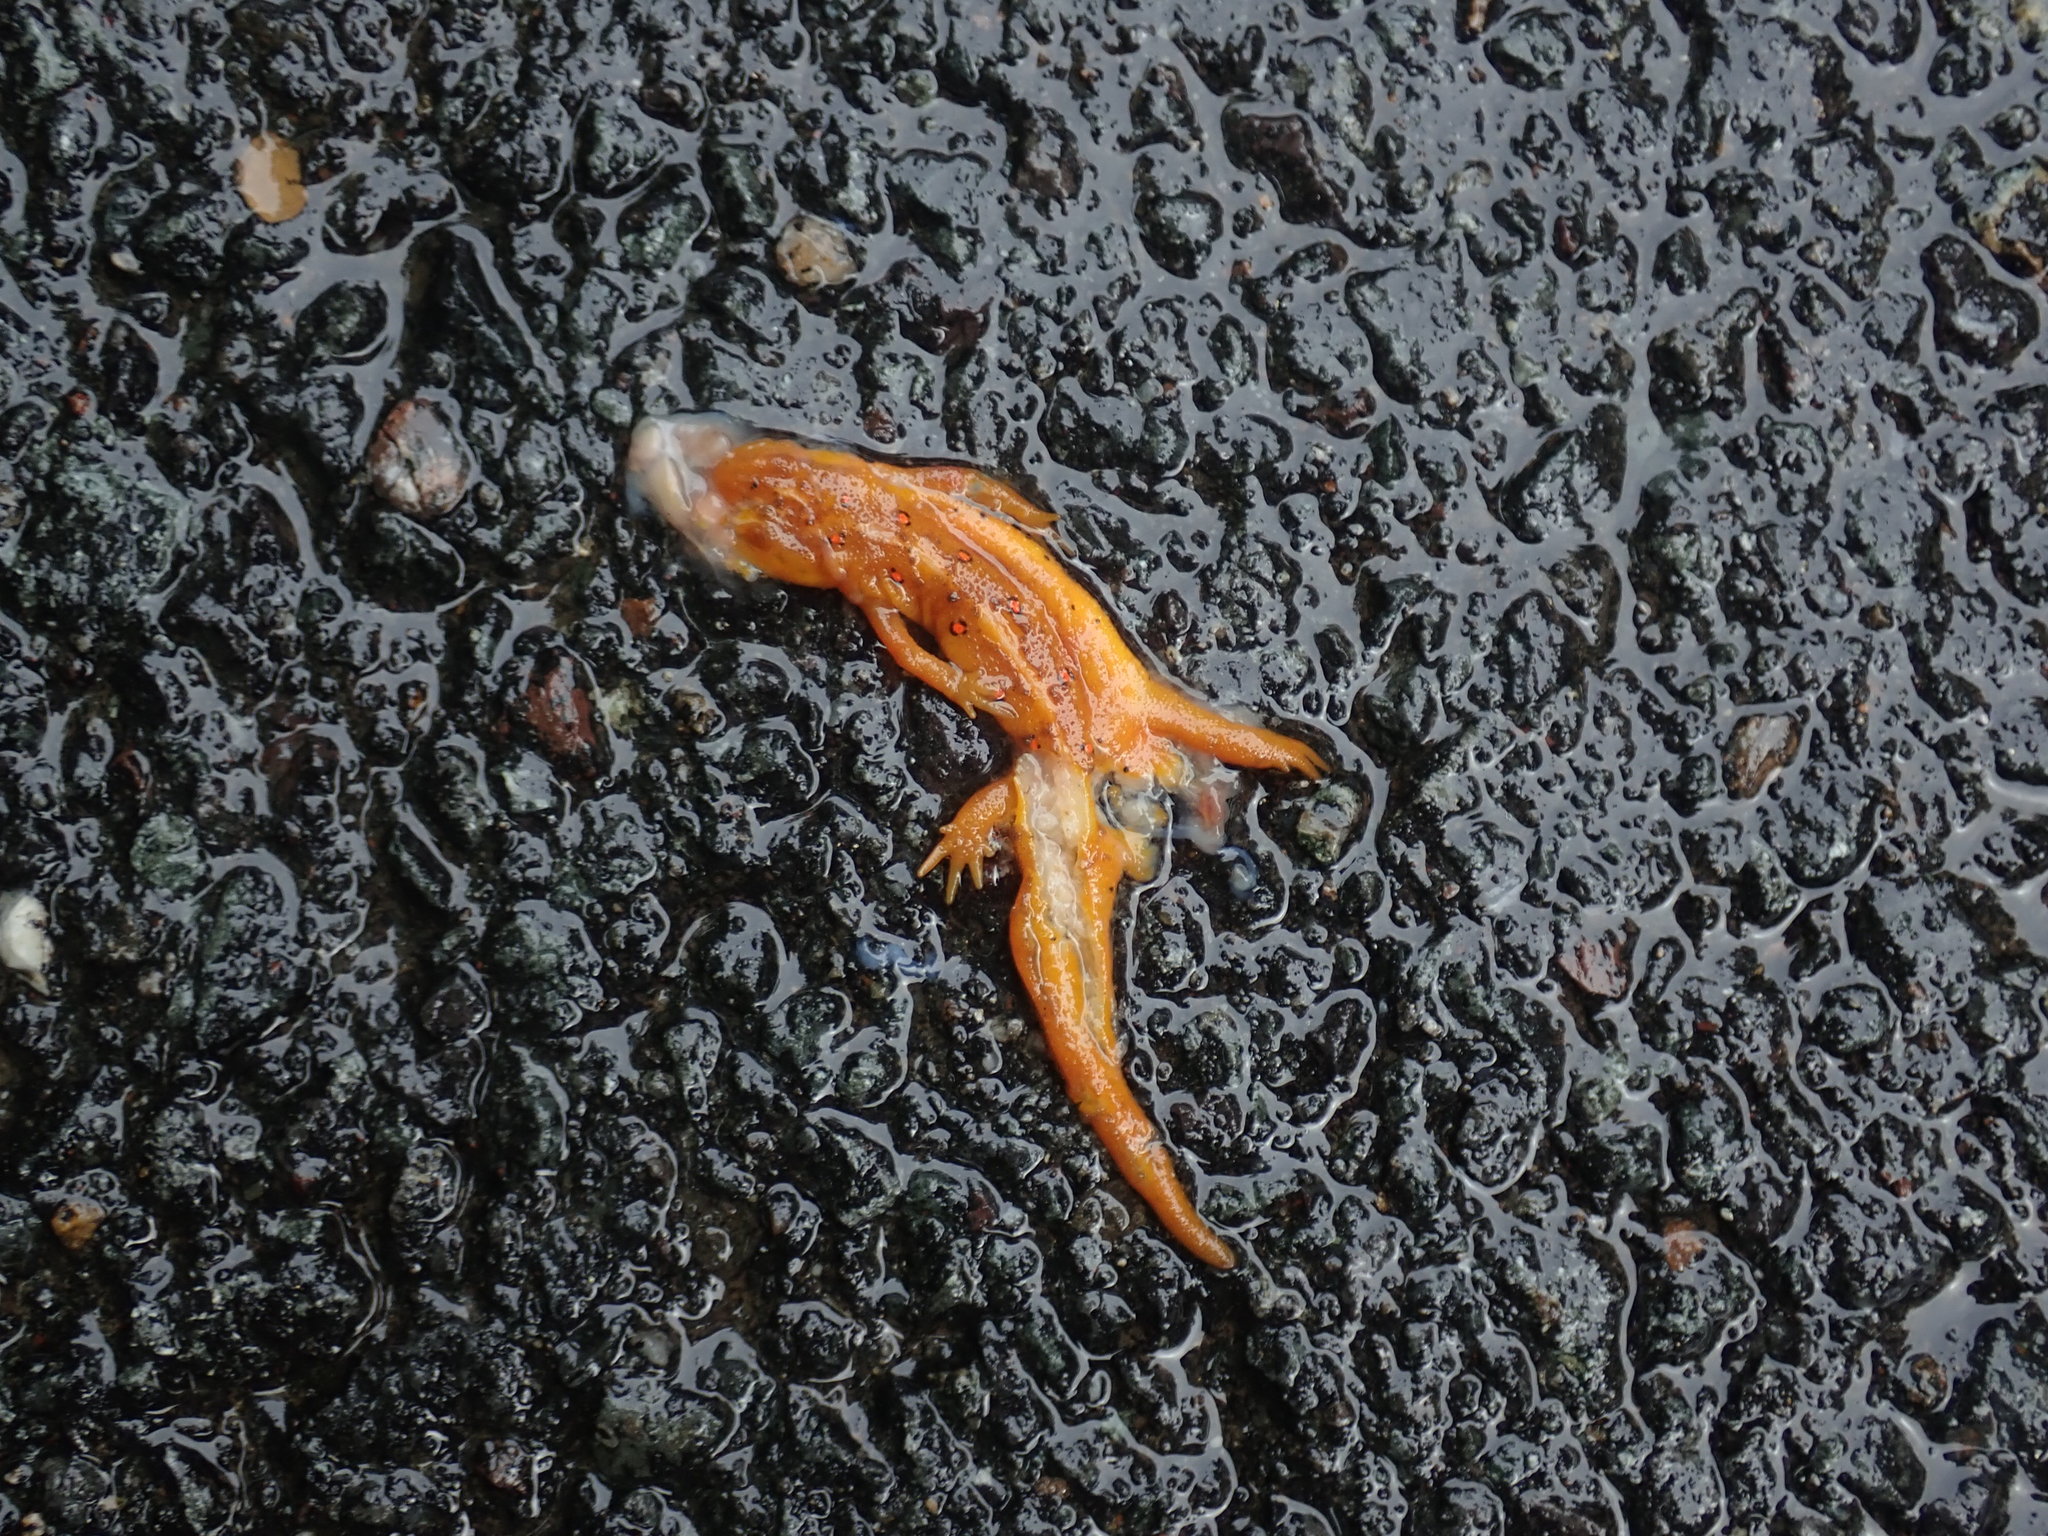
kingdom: Animalia
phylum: Chordata
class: Amphibia
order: Caudata
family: Salamandridae
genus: Notophthalmus
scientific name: Notophthalmus viridescens
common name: Eastern newt
